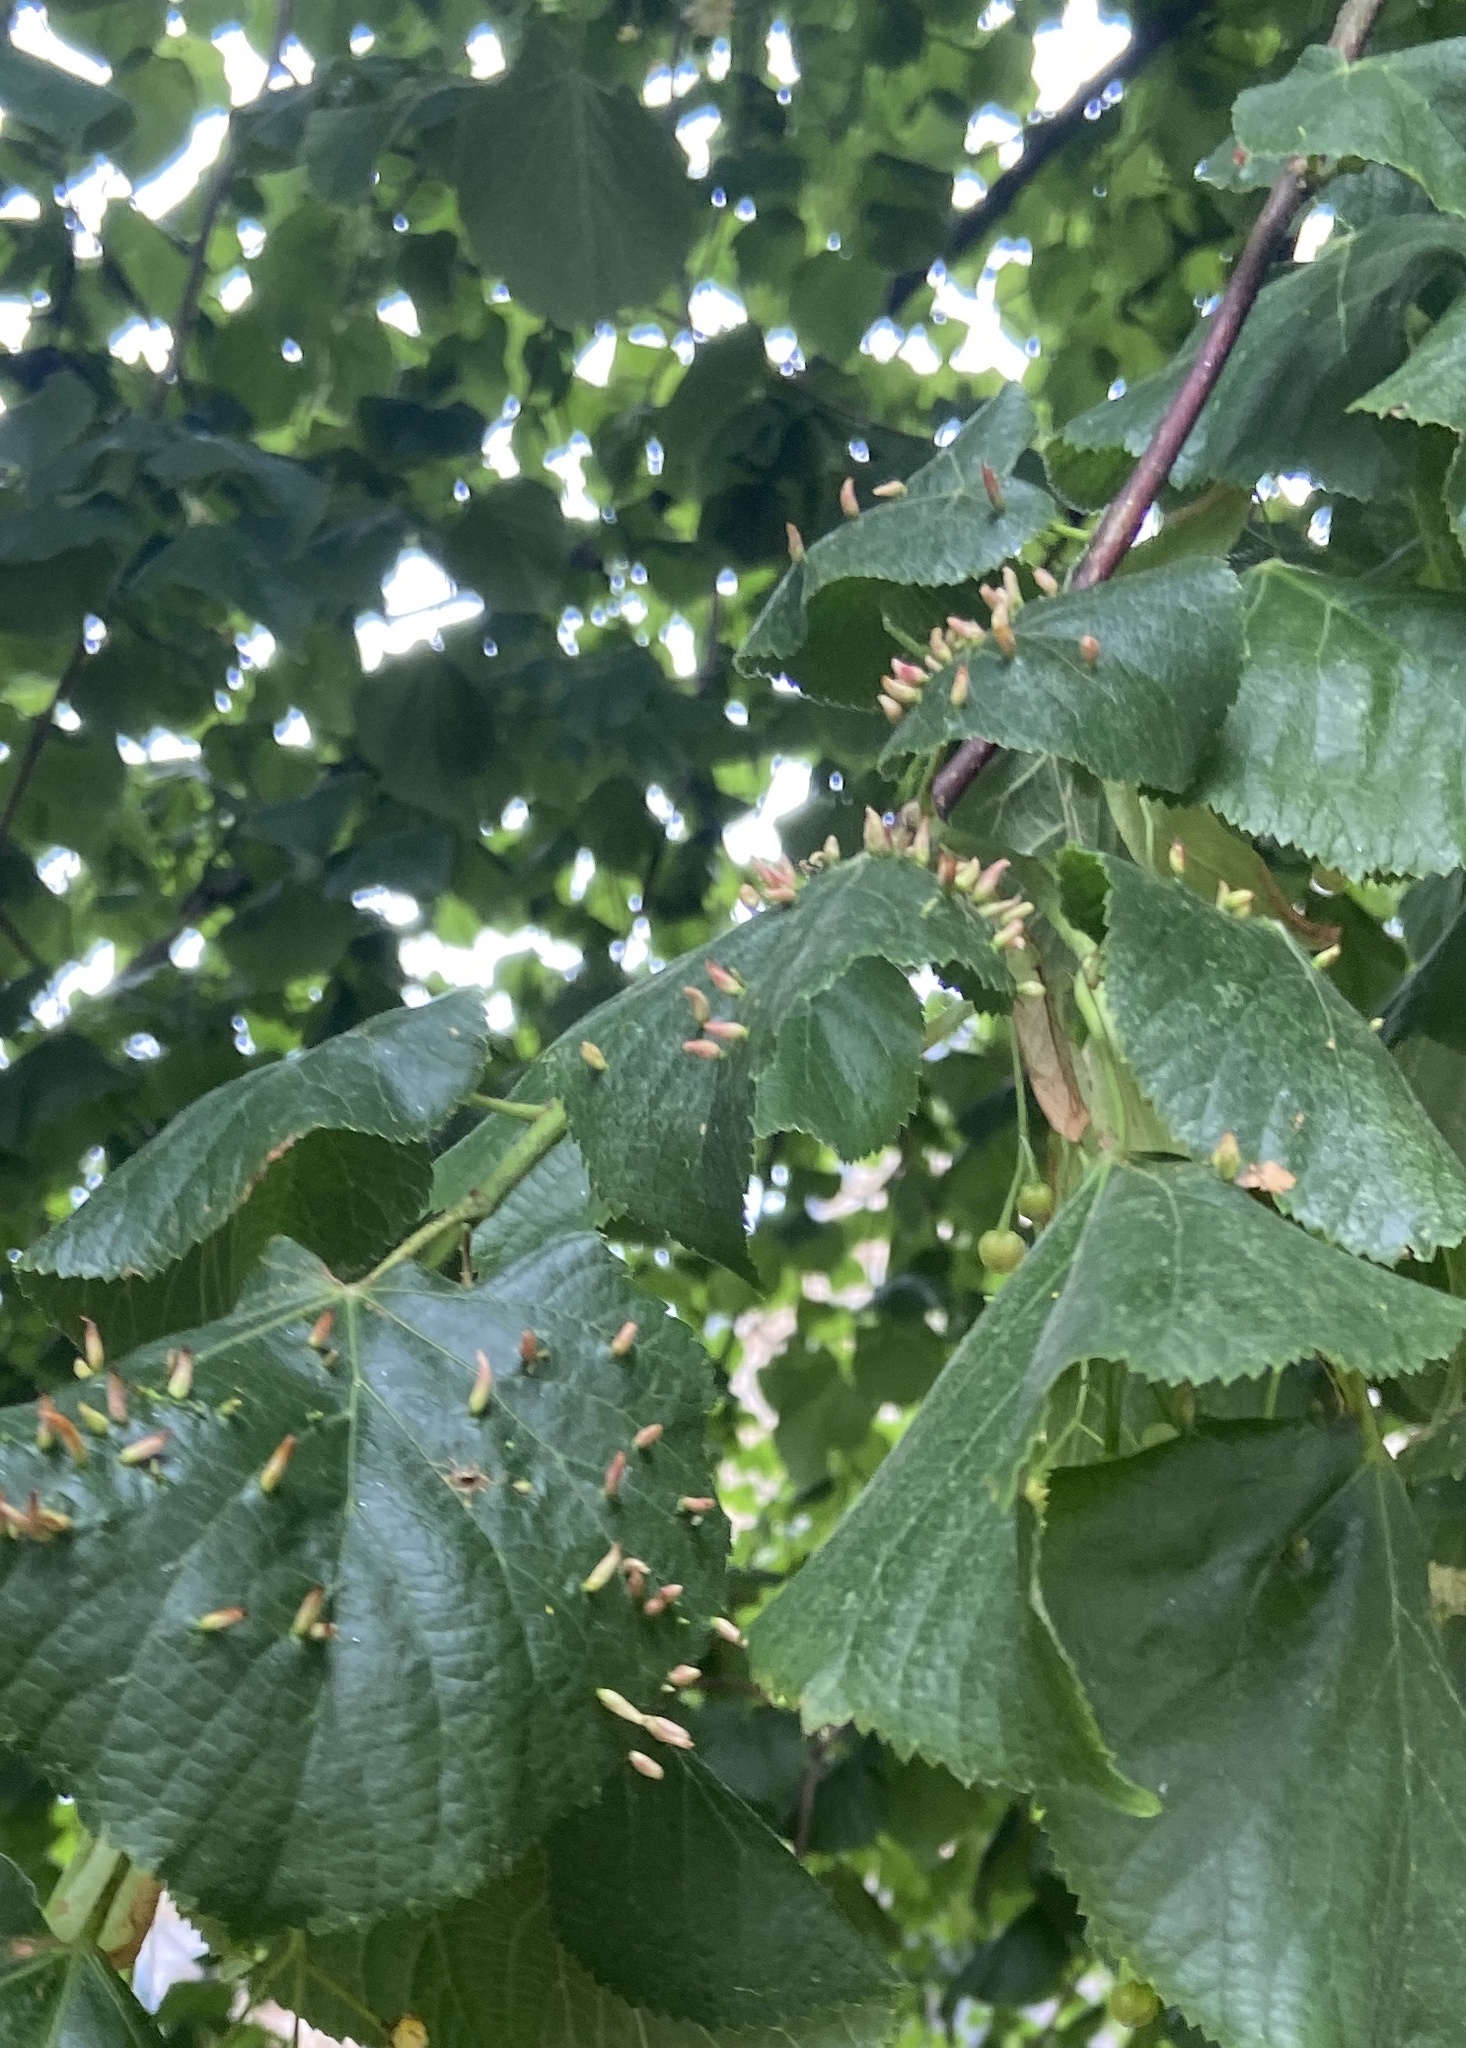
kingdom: Animalia
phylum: Arthropoda
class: Arachnida
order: Trombidiformes
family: Eriophyidae
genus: Eriophyes
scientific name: Eriophyes tiliae
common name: Red nail gall mite
